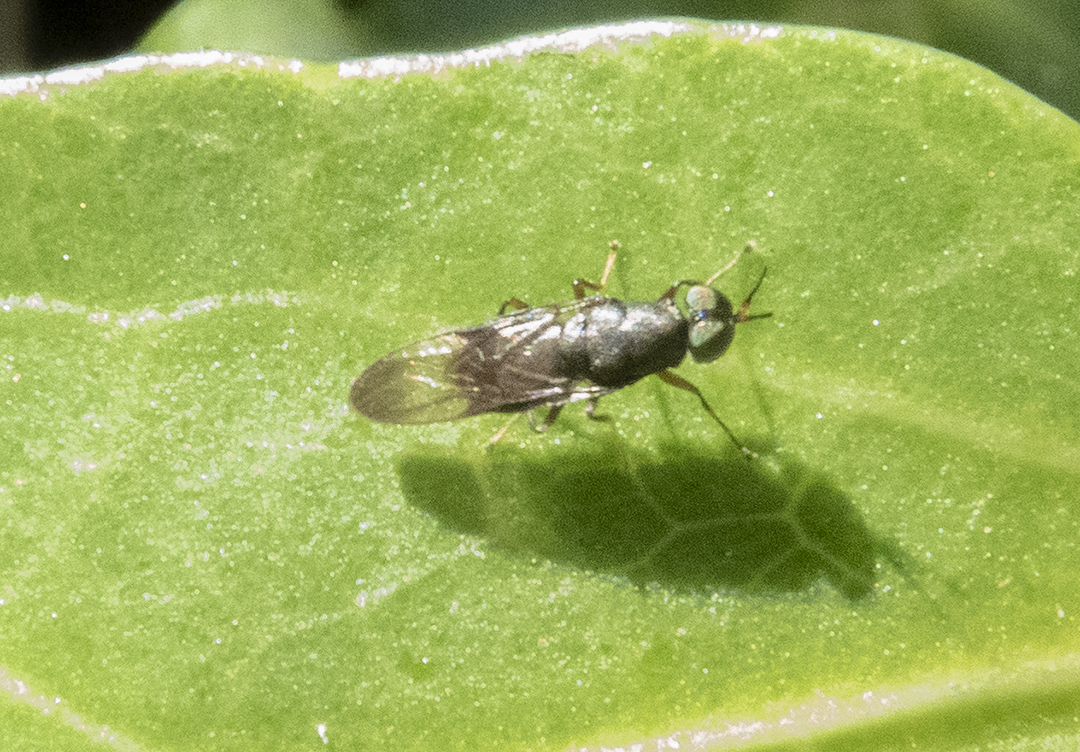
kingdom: Animalia
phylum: Arthropoda
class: Insecta
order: Diptera
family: Stratiomyidae
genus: Dysbiota
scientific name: Dysbiota peregrina
